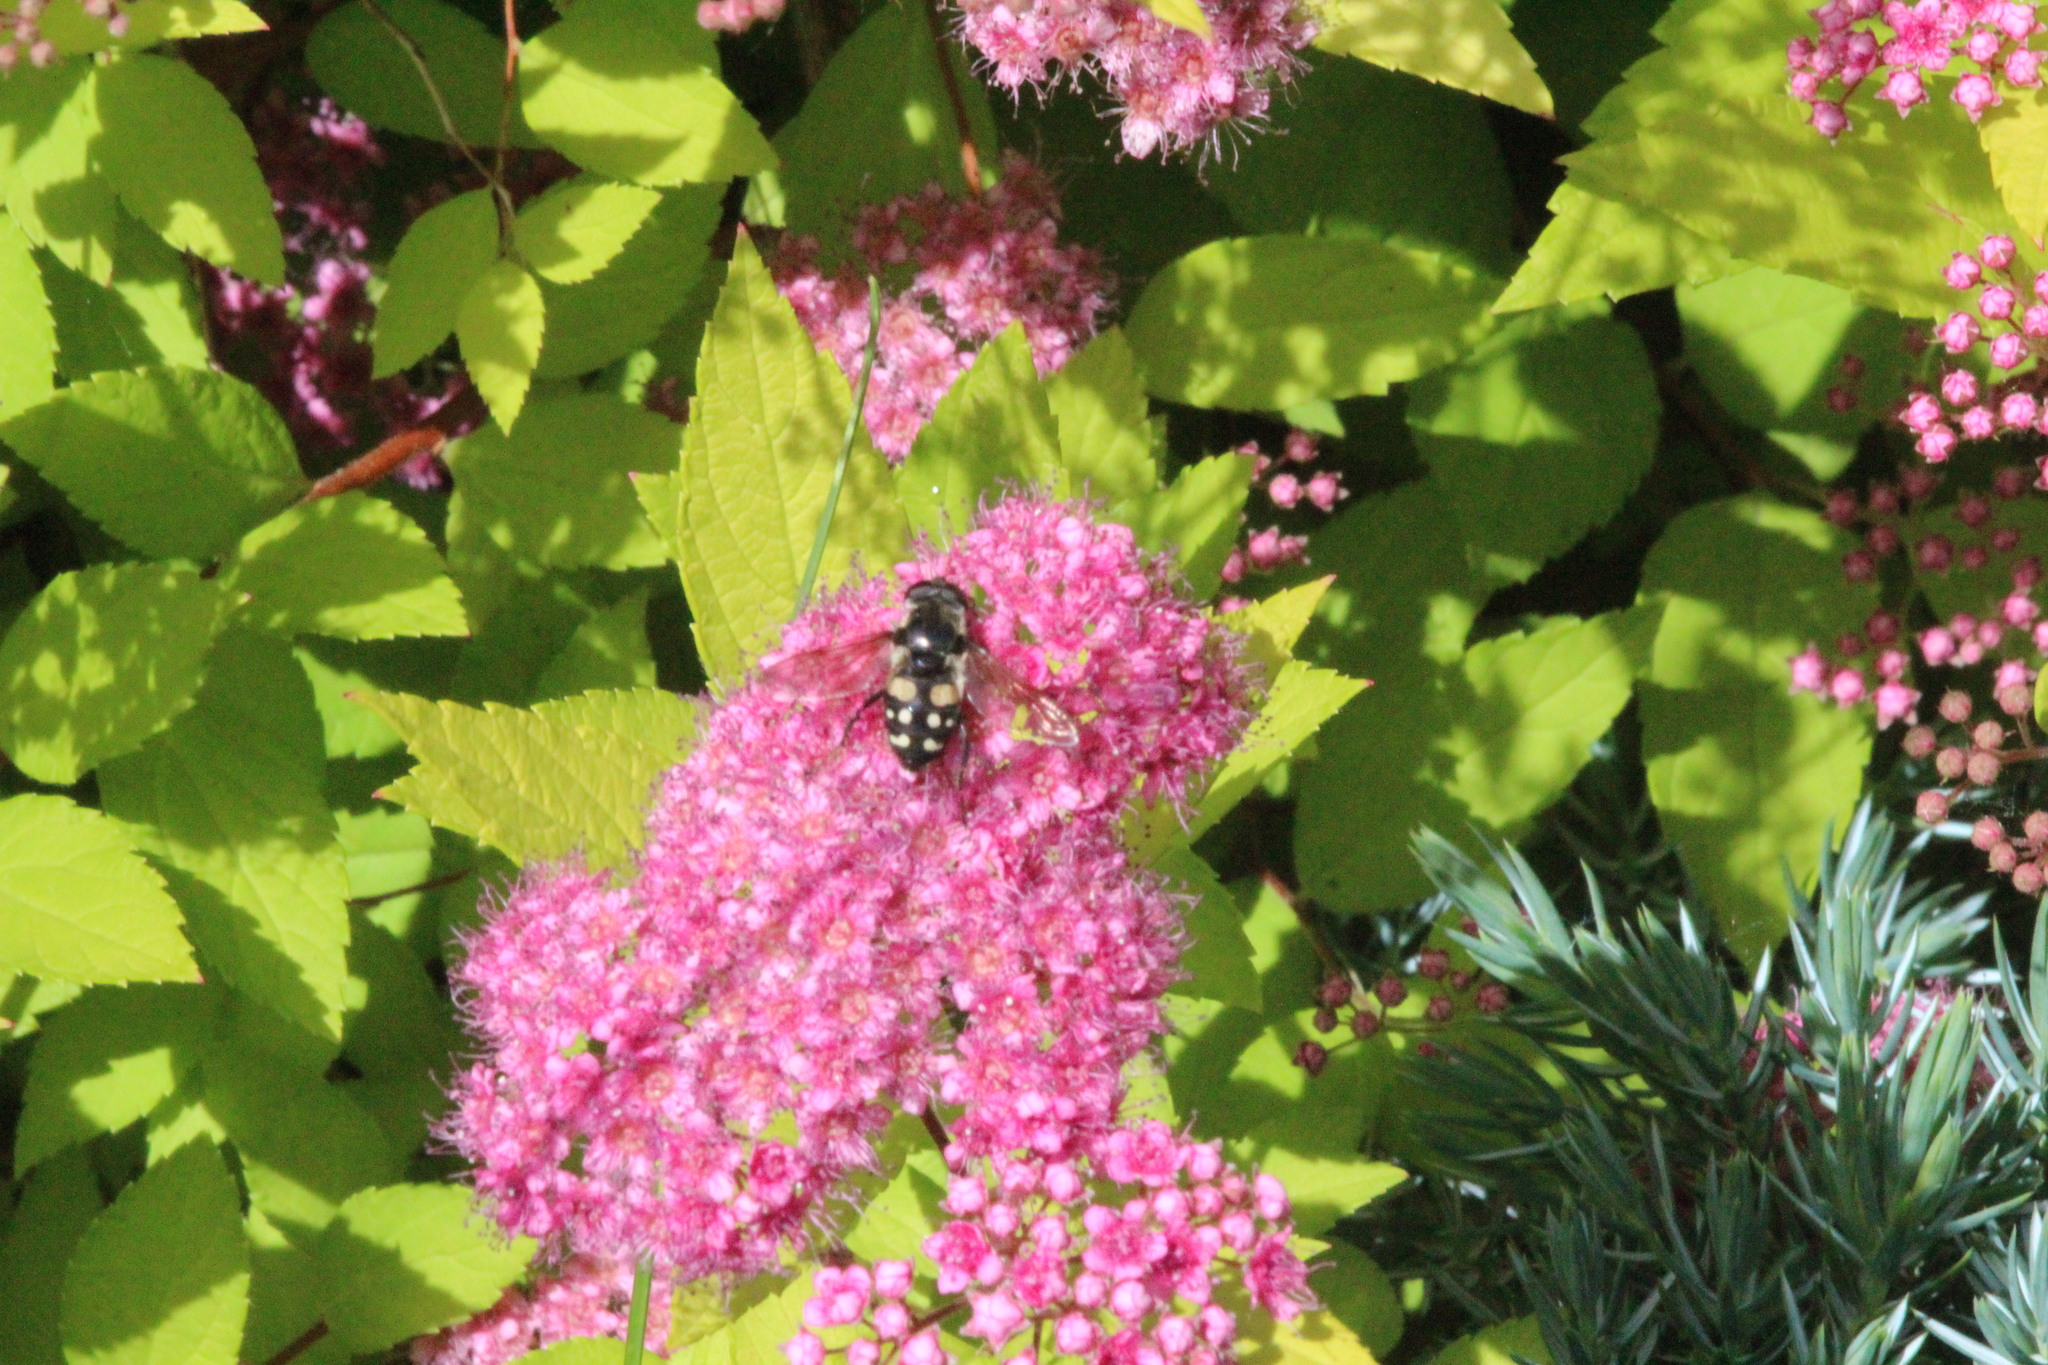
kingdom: Animalia
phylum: Arthropoda
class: Insecta
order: Diptera
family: Syrphidae
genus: Sericomyia
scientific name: Sericomyia lata
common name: White-spotted pond fly
